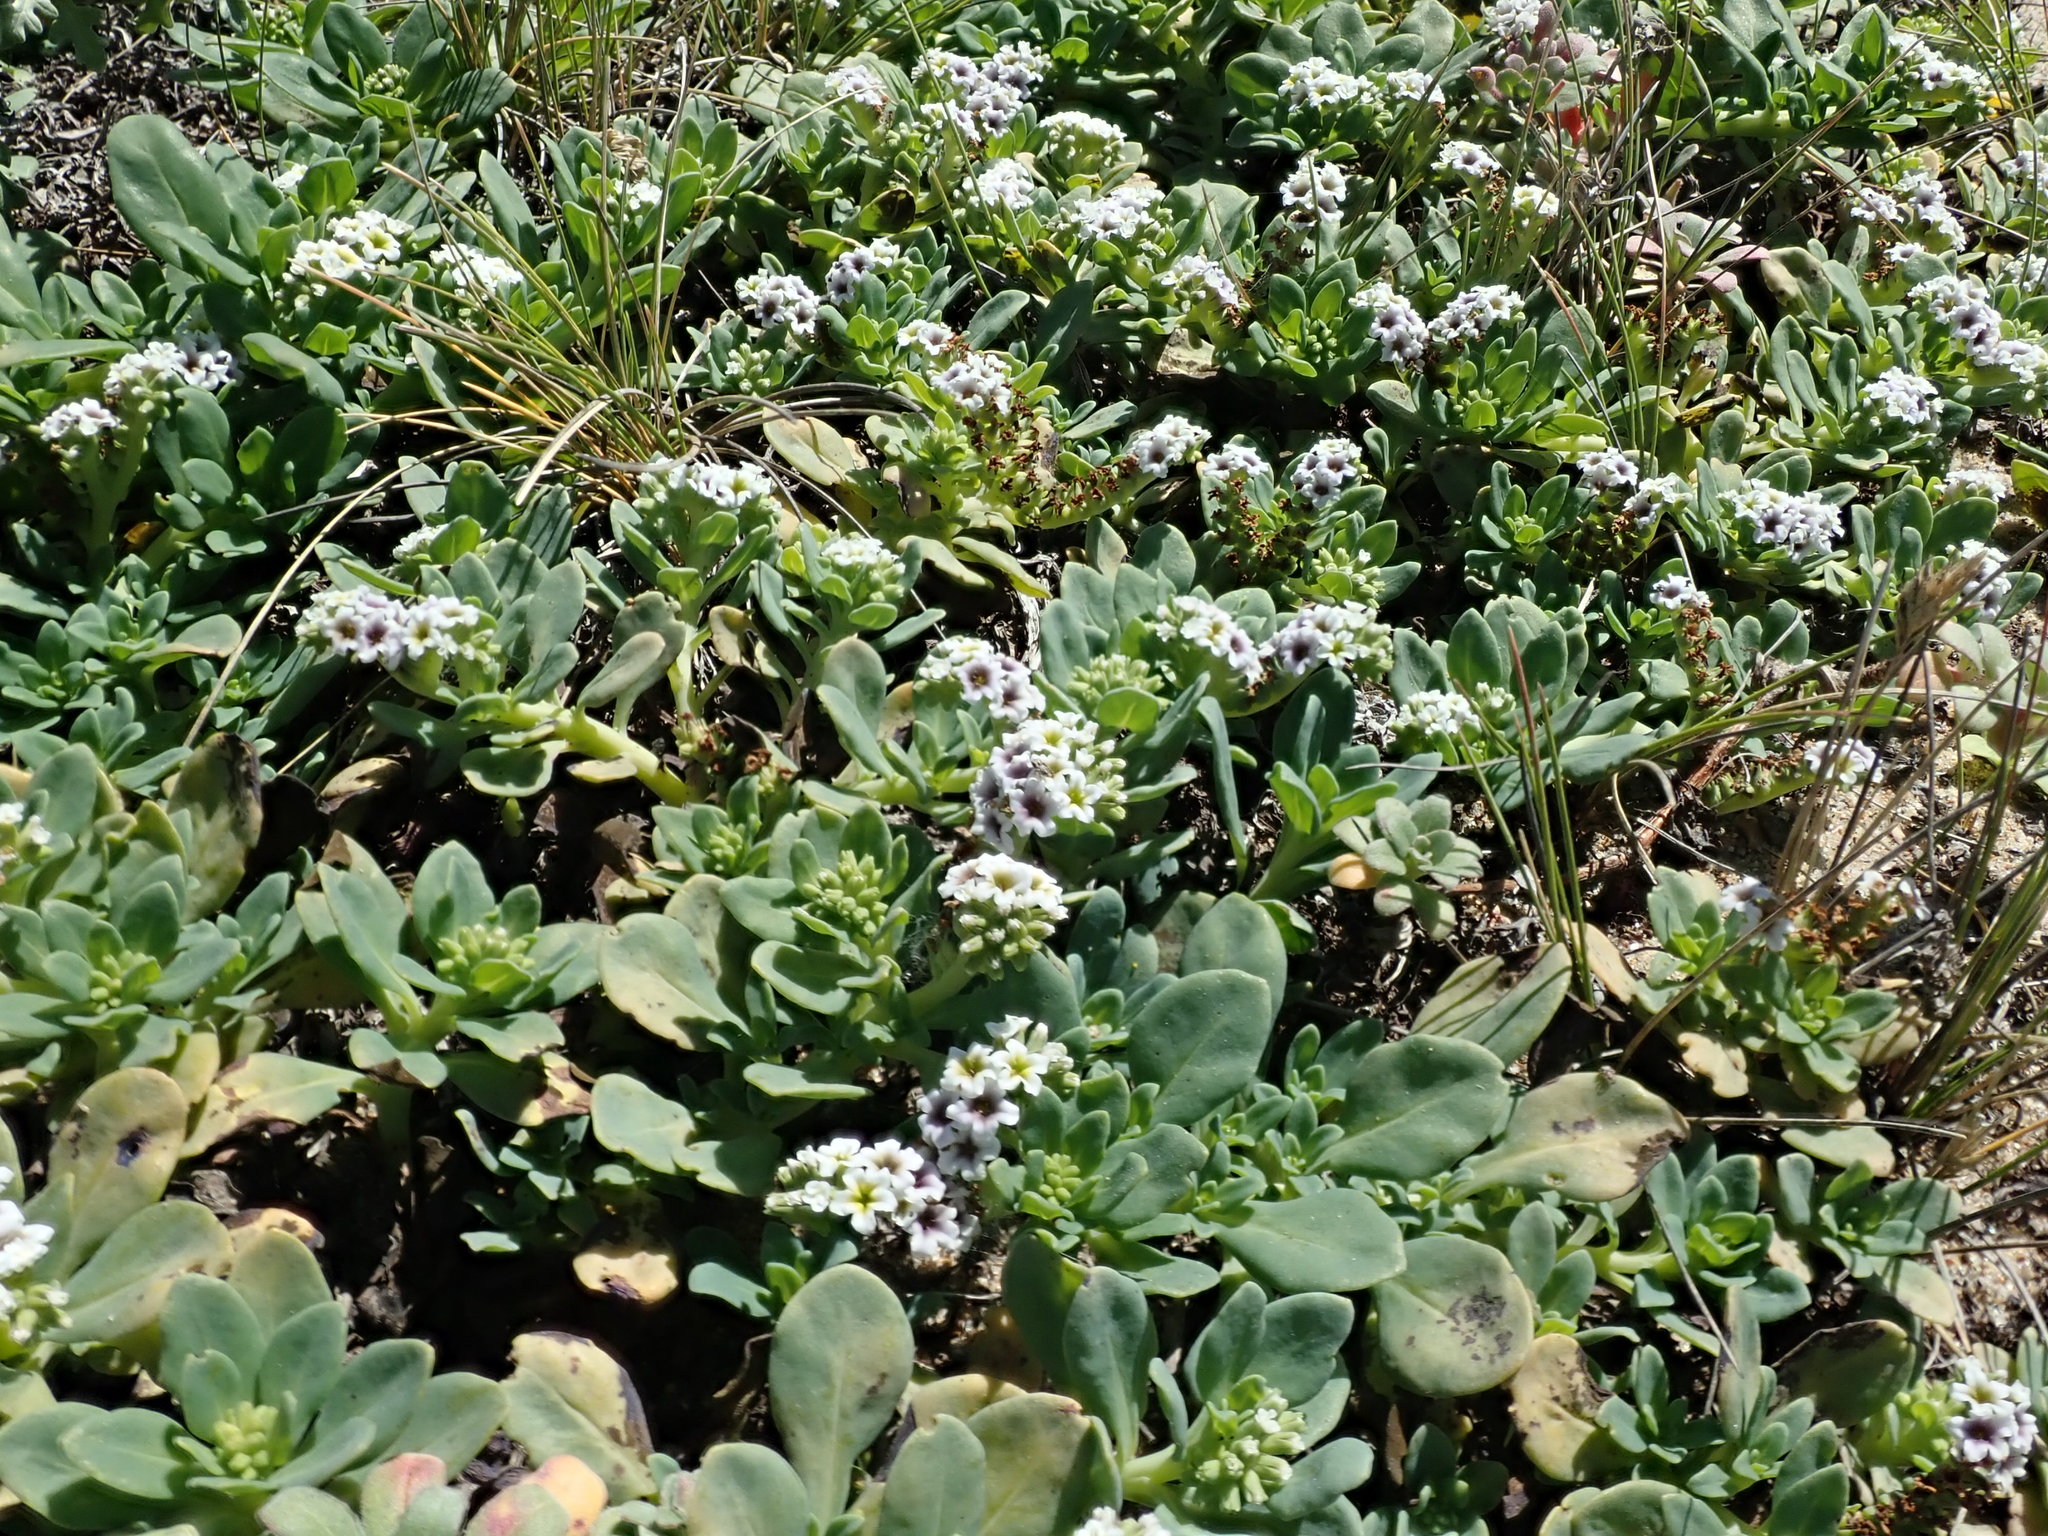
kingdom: Plantae
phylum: Tracheophyta
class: Magnoliopsida
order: Boraginales
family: Heliotropiaceae
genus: Heliotropium
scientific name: Heliotropium curassavicum
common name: Seaside heliotrope
